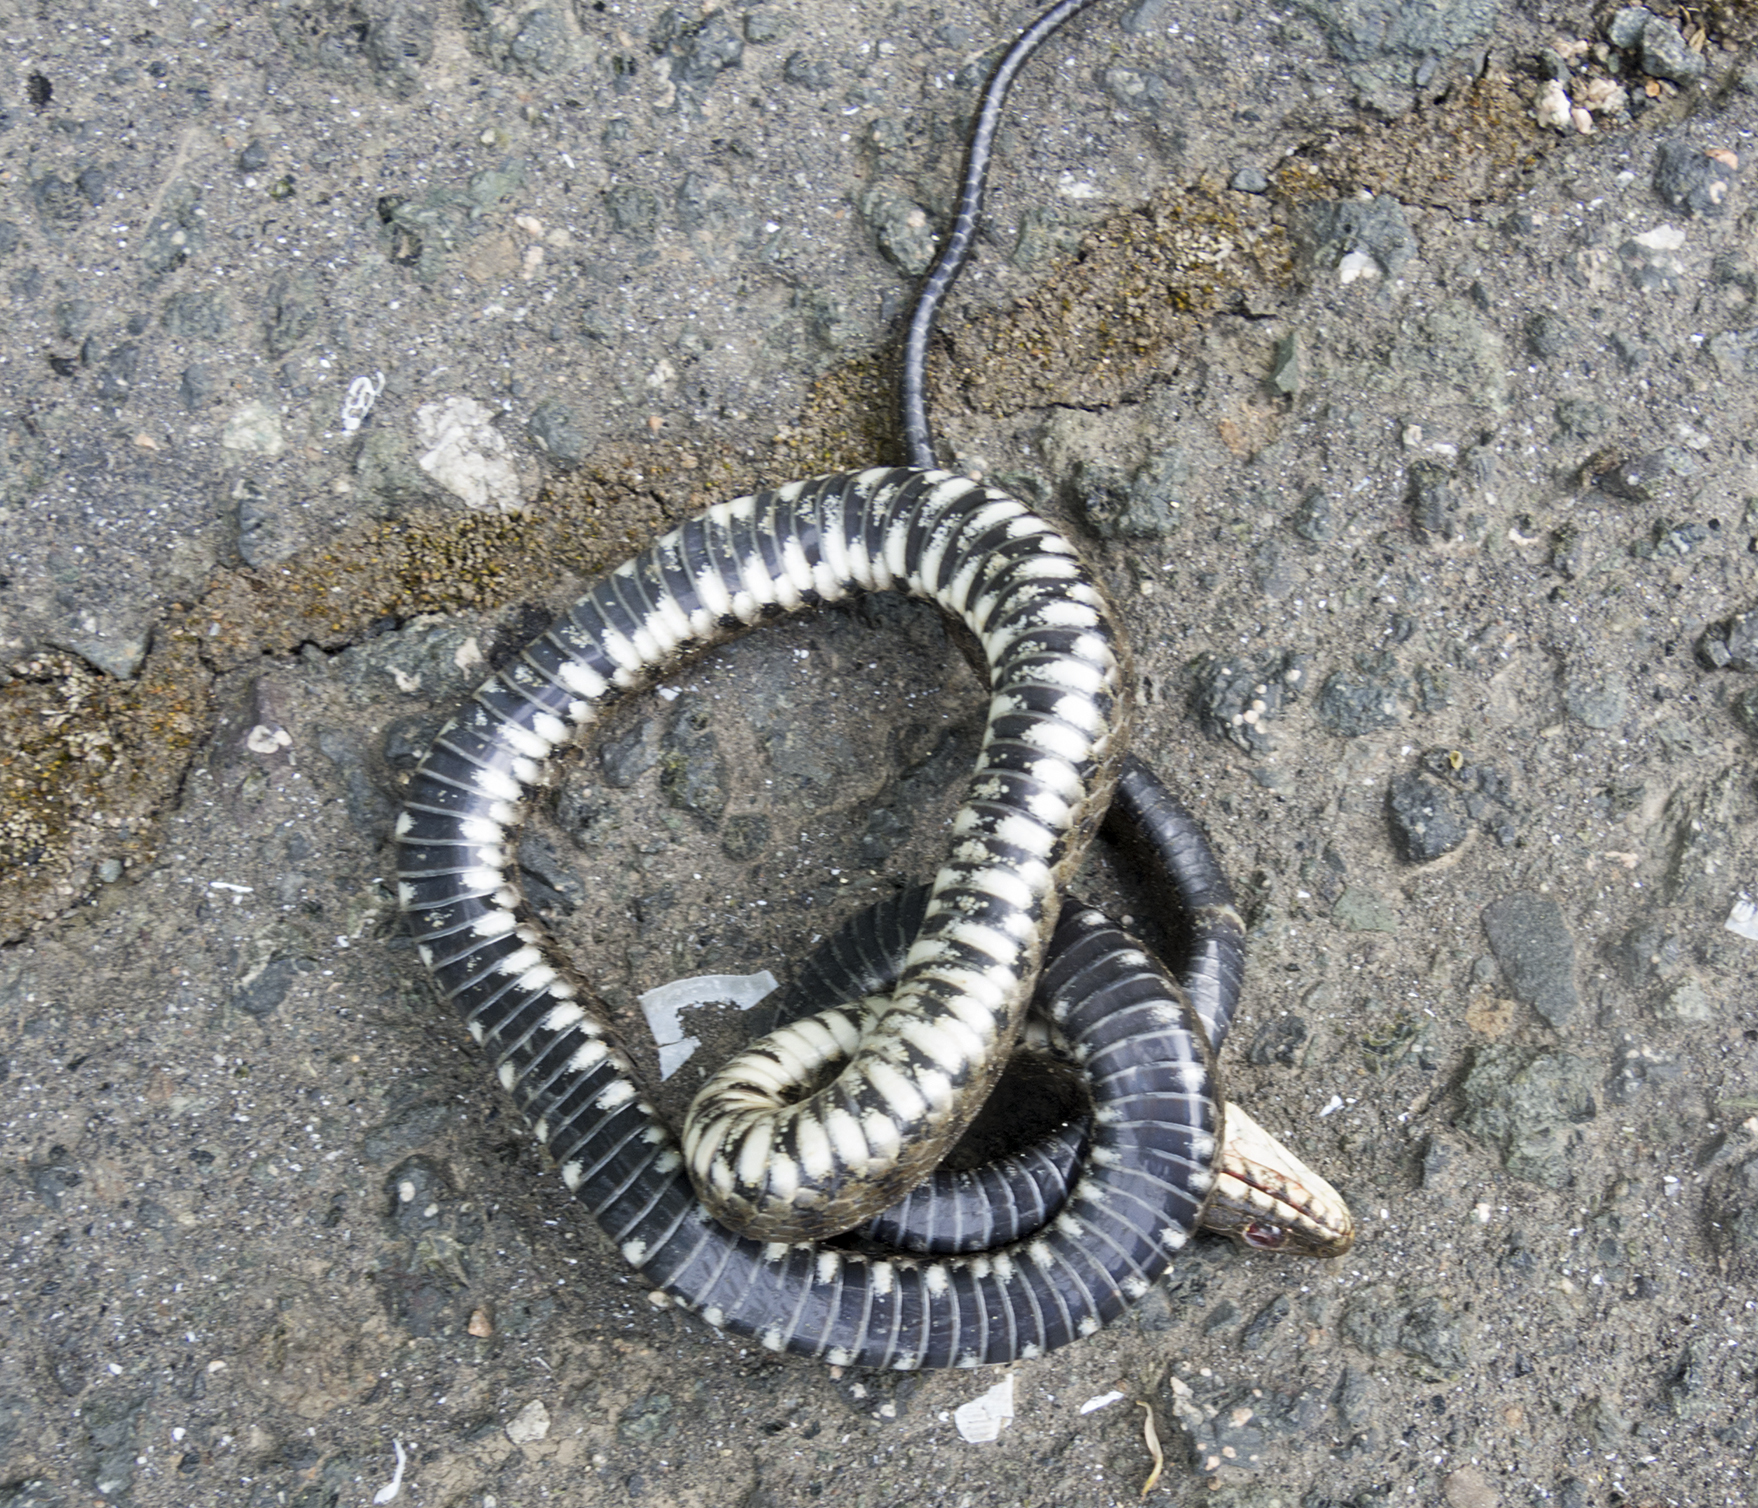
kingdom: Animalia
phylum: Chordata
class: Squamata
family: Colubridae
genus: Natrix
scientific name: Natrix tessellata
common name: Dice snake
